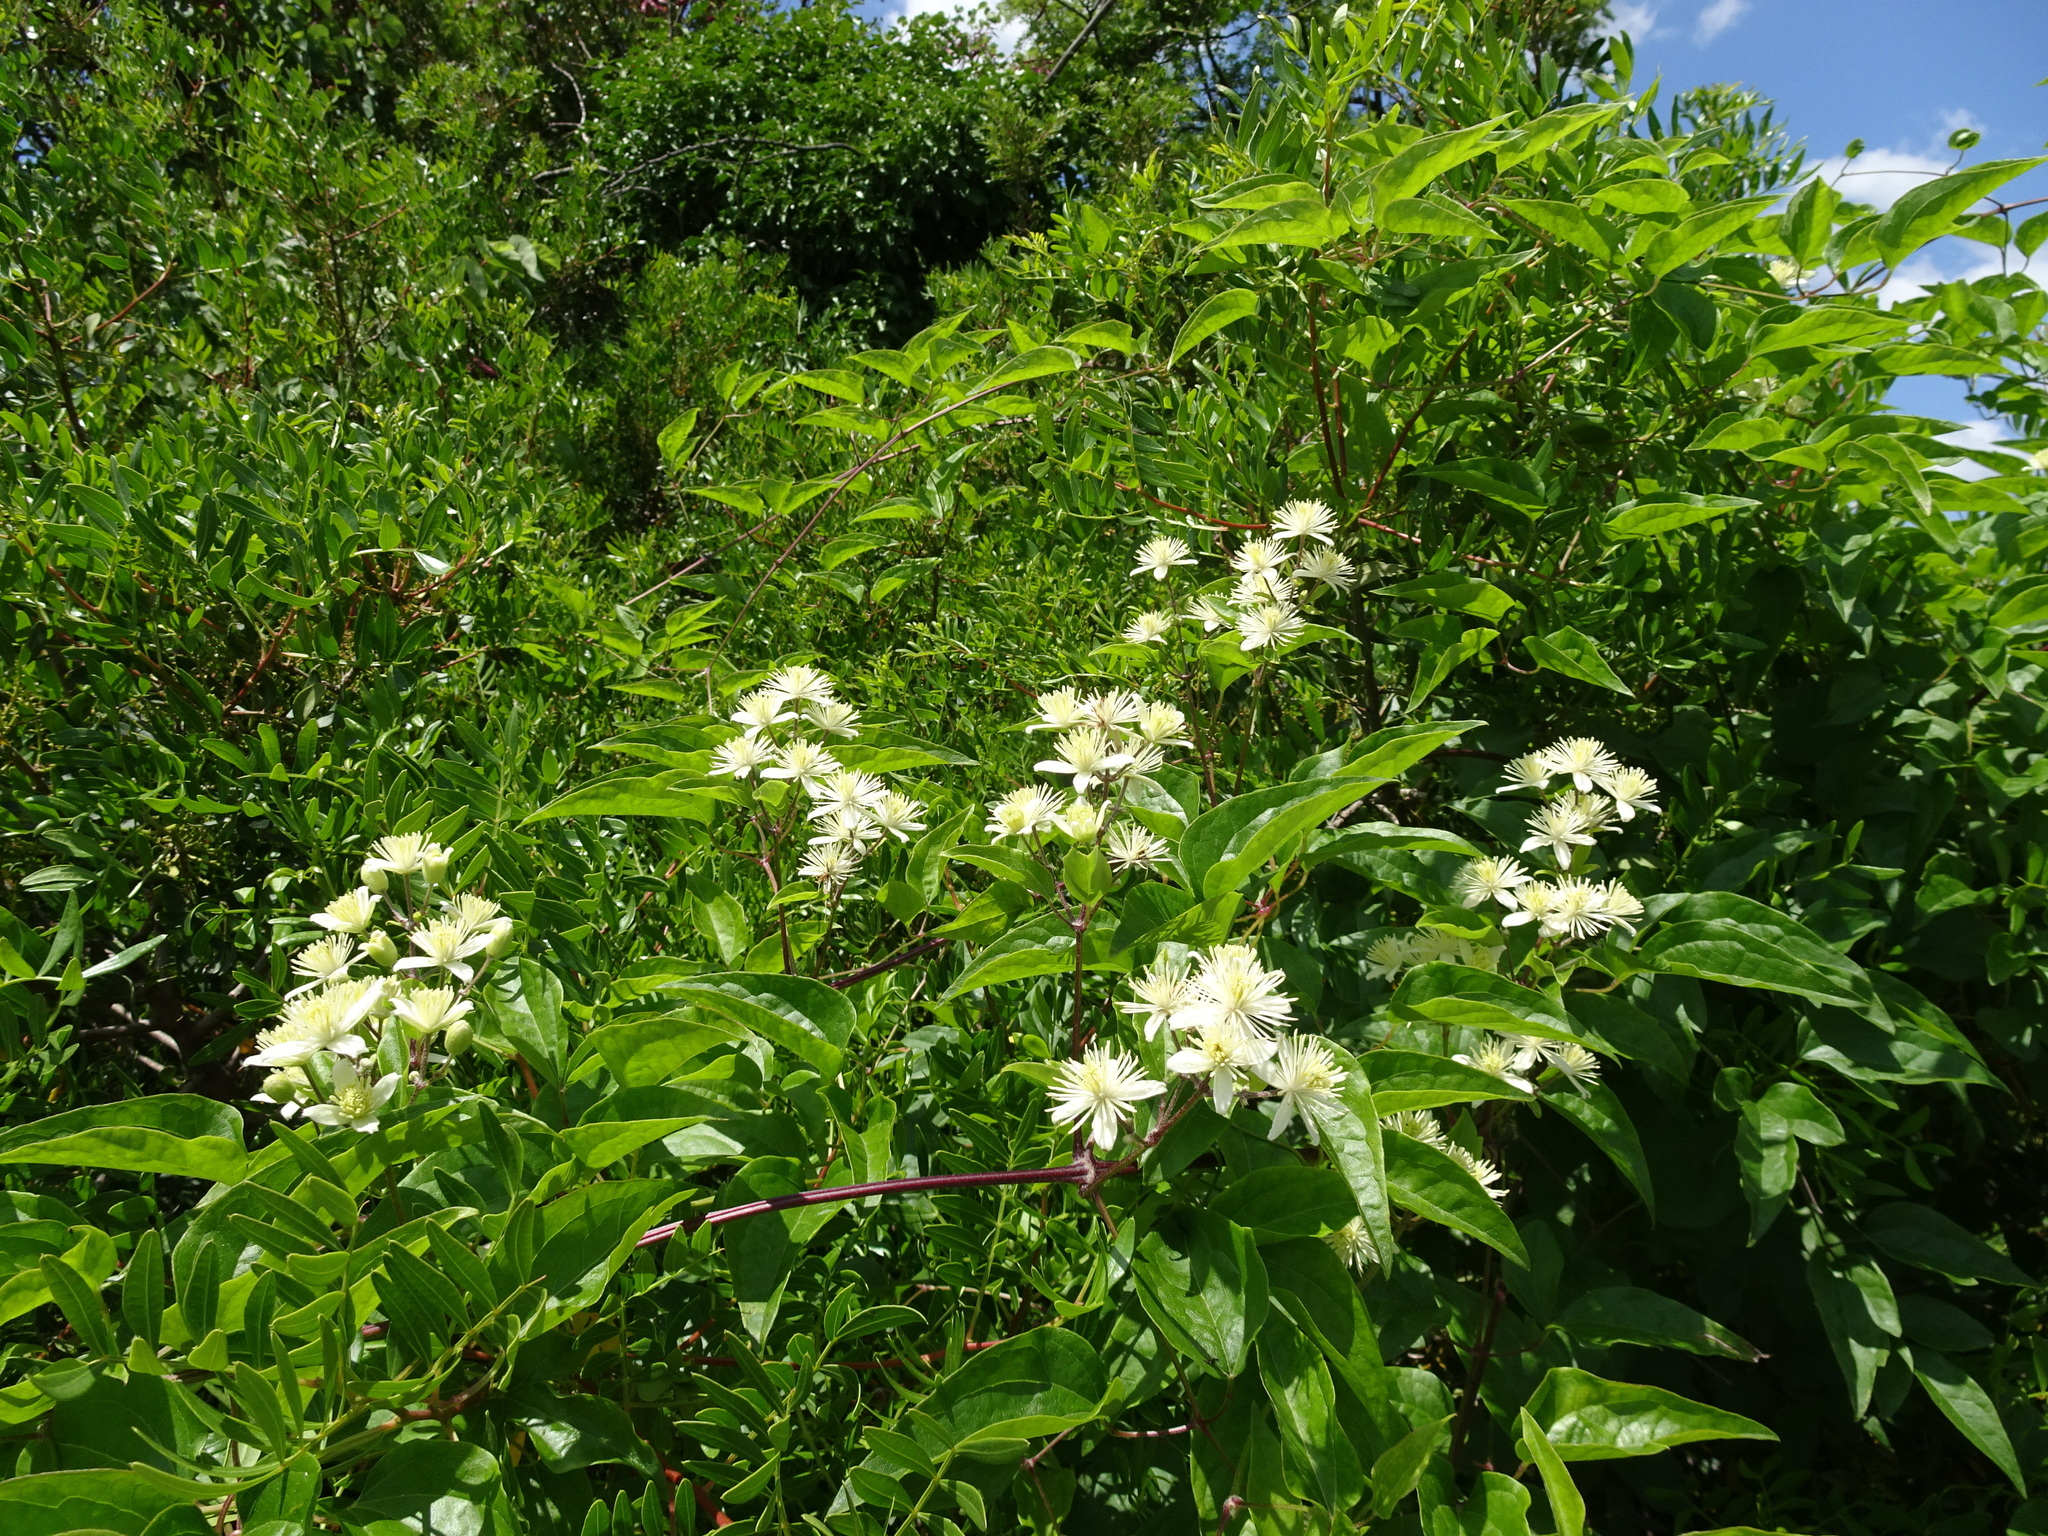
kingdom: Plantae
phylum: Tracheophyta
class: Magnoliopsida
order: Ranunculales
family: Ranunculaceae
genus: Clematis
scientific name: Clematis vitalba
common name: Evergreen clematis
